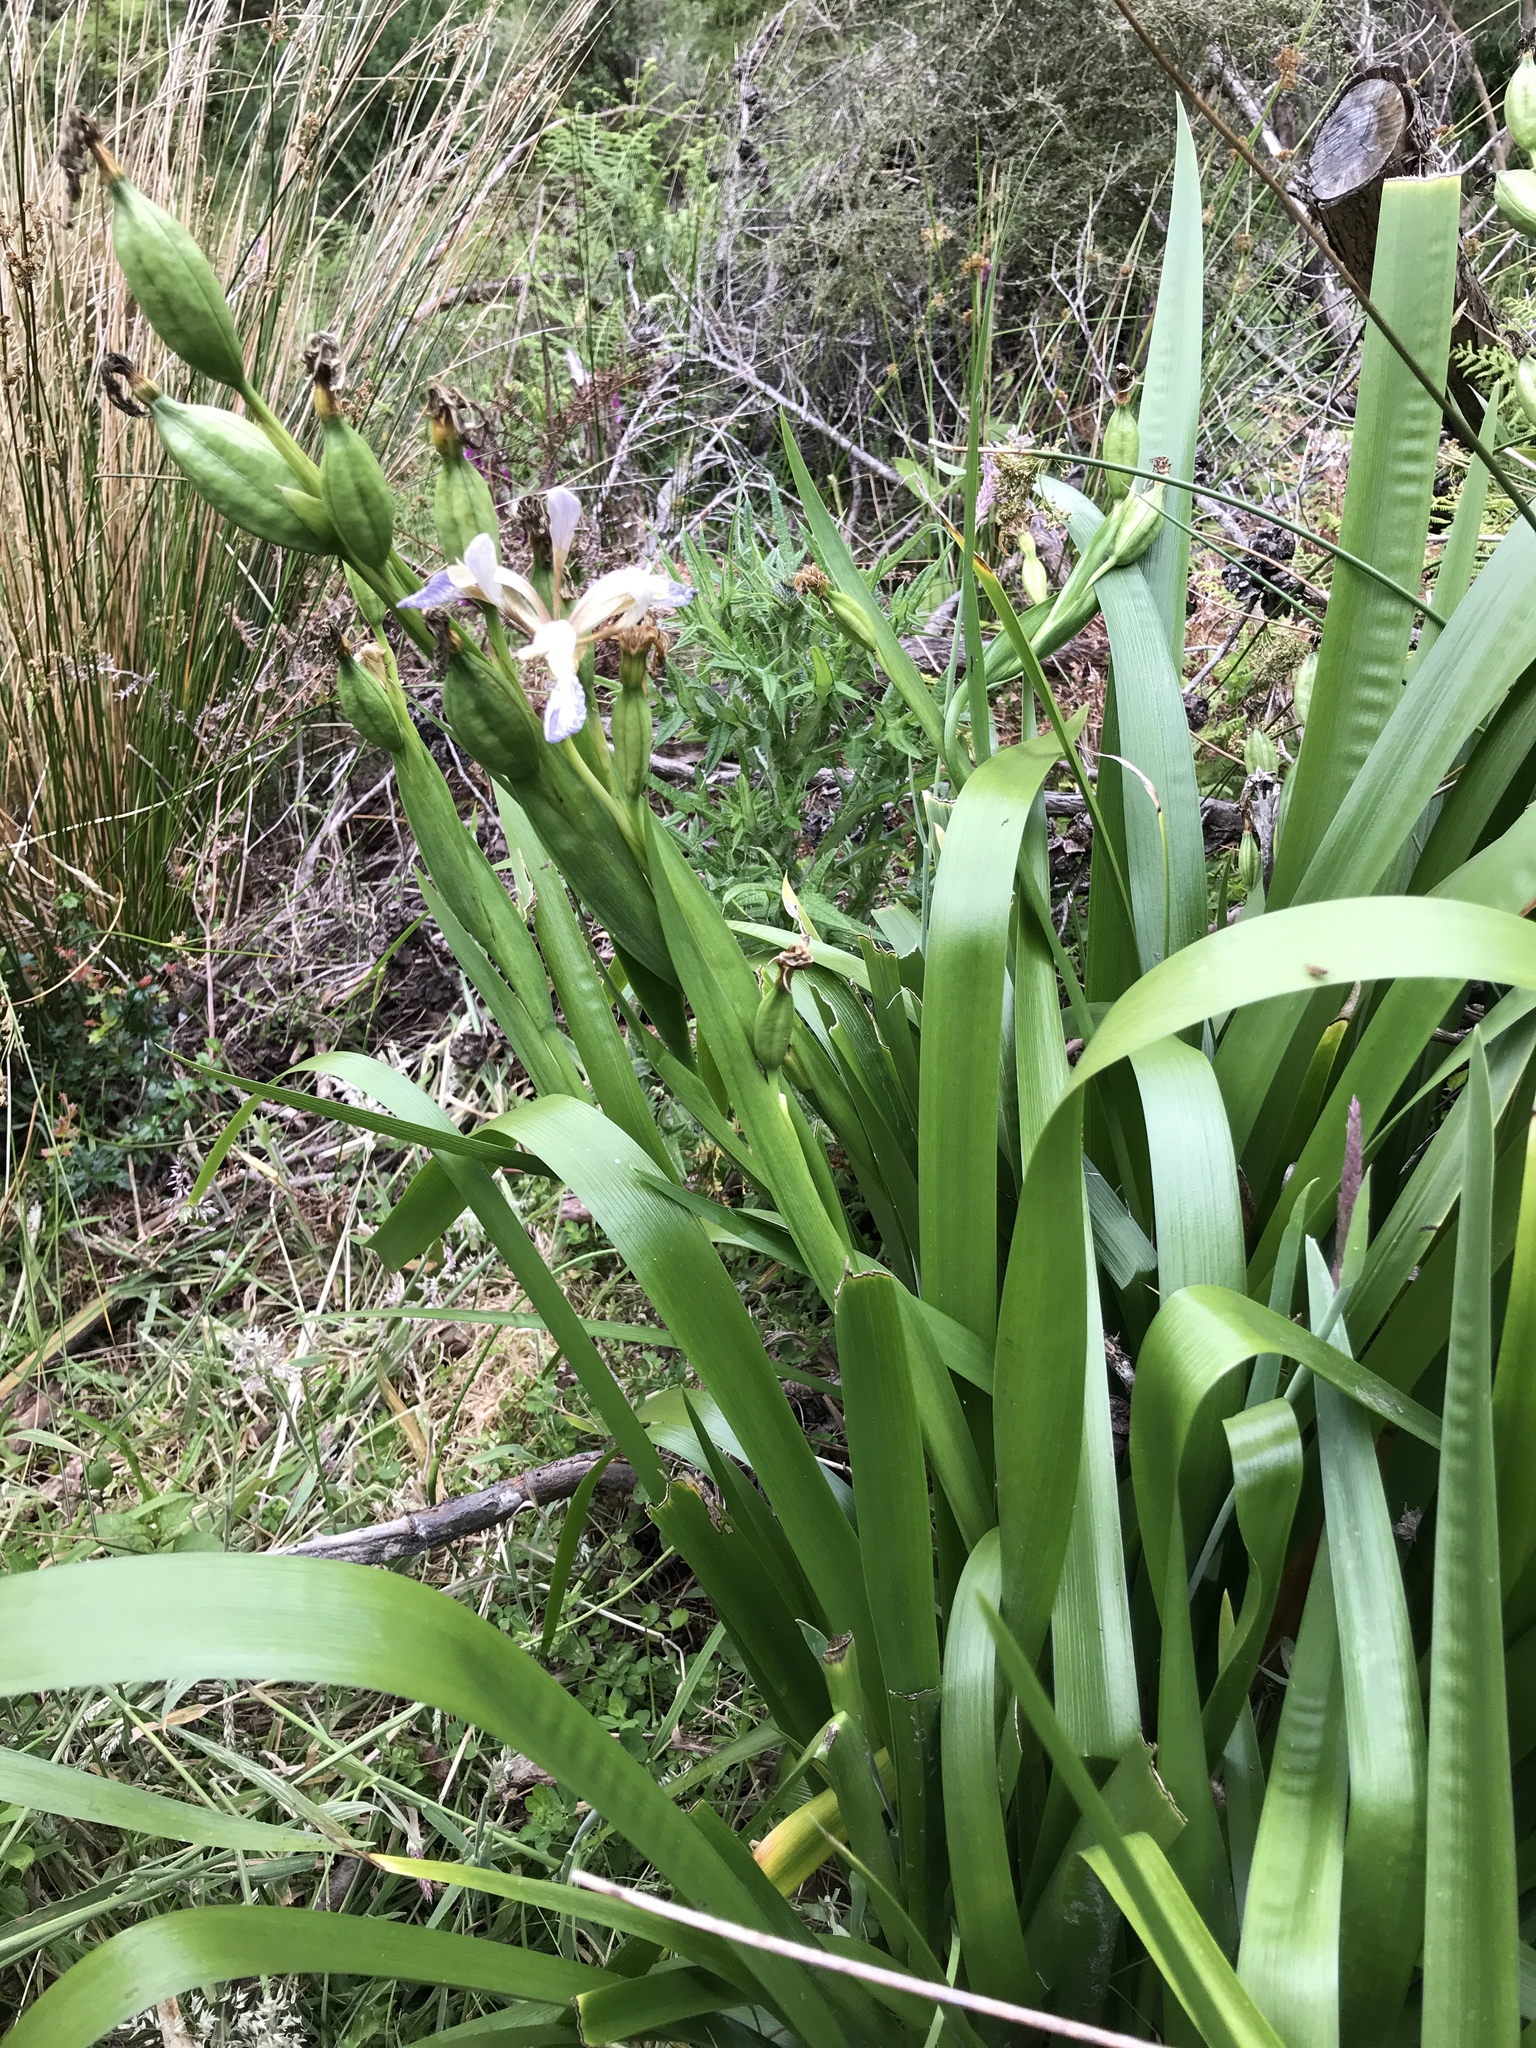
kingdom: Plantae
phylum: Tracheophyta
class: Liliopsida
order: Asparagales
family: Iridaceae
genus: Iris
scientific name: Iris foetidissima
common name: Stinking iris
